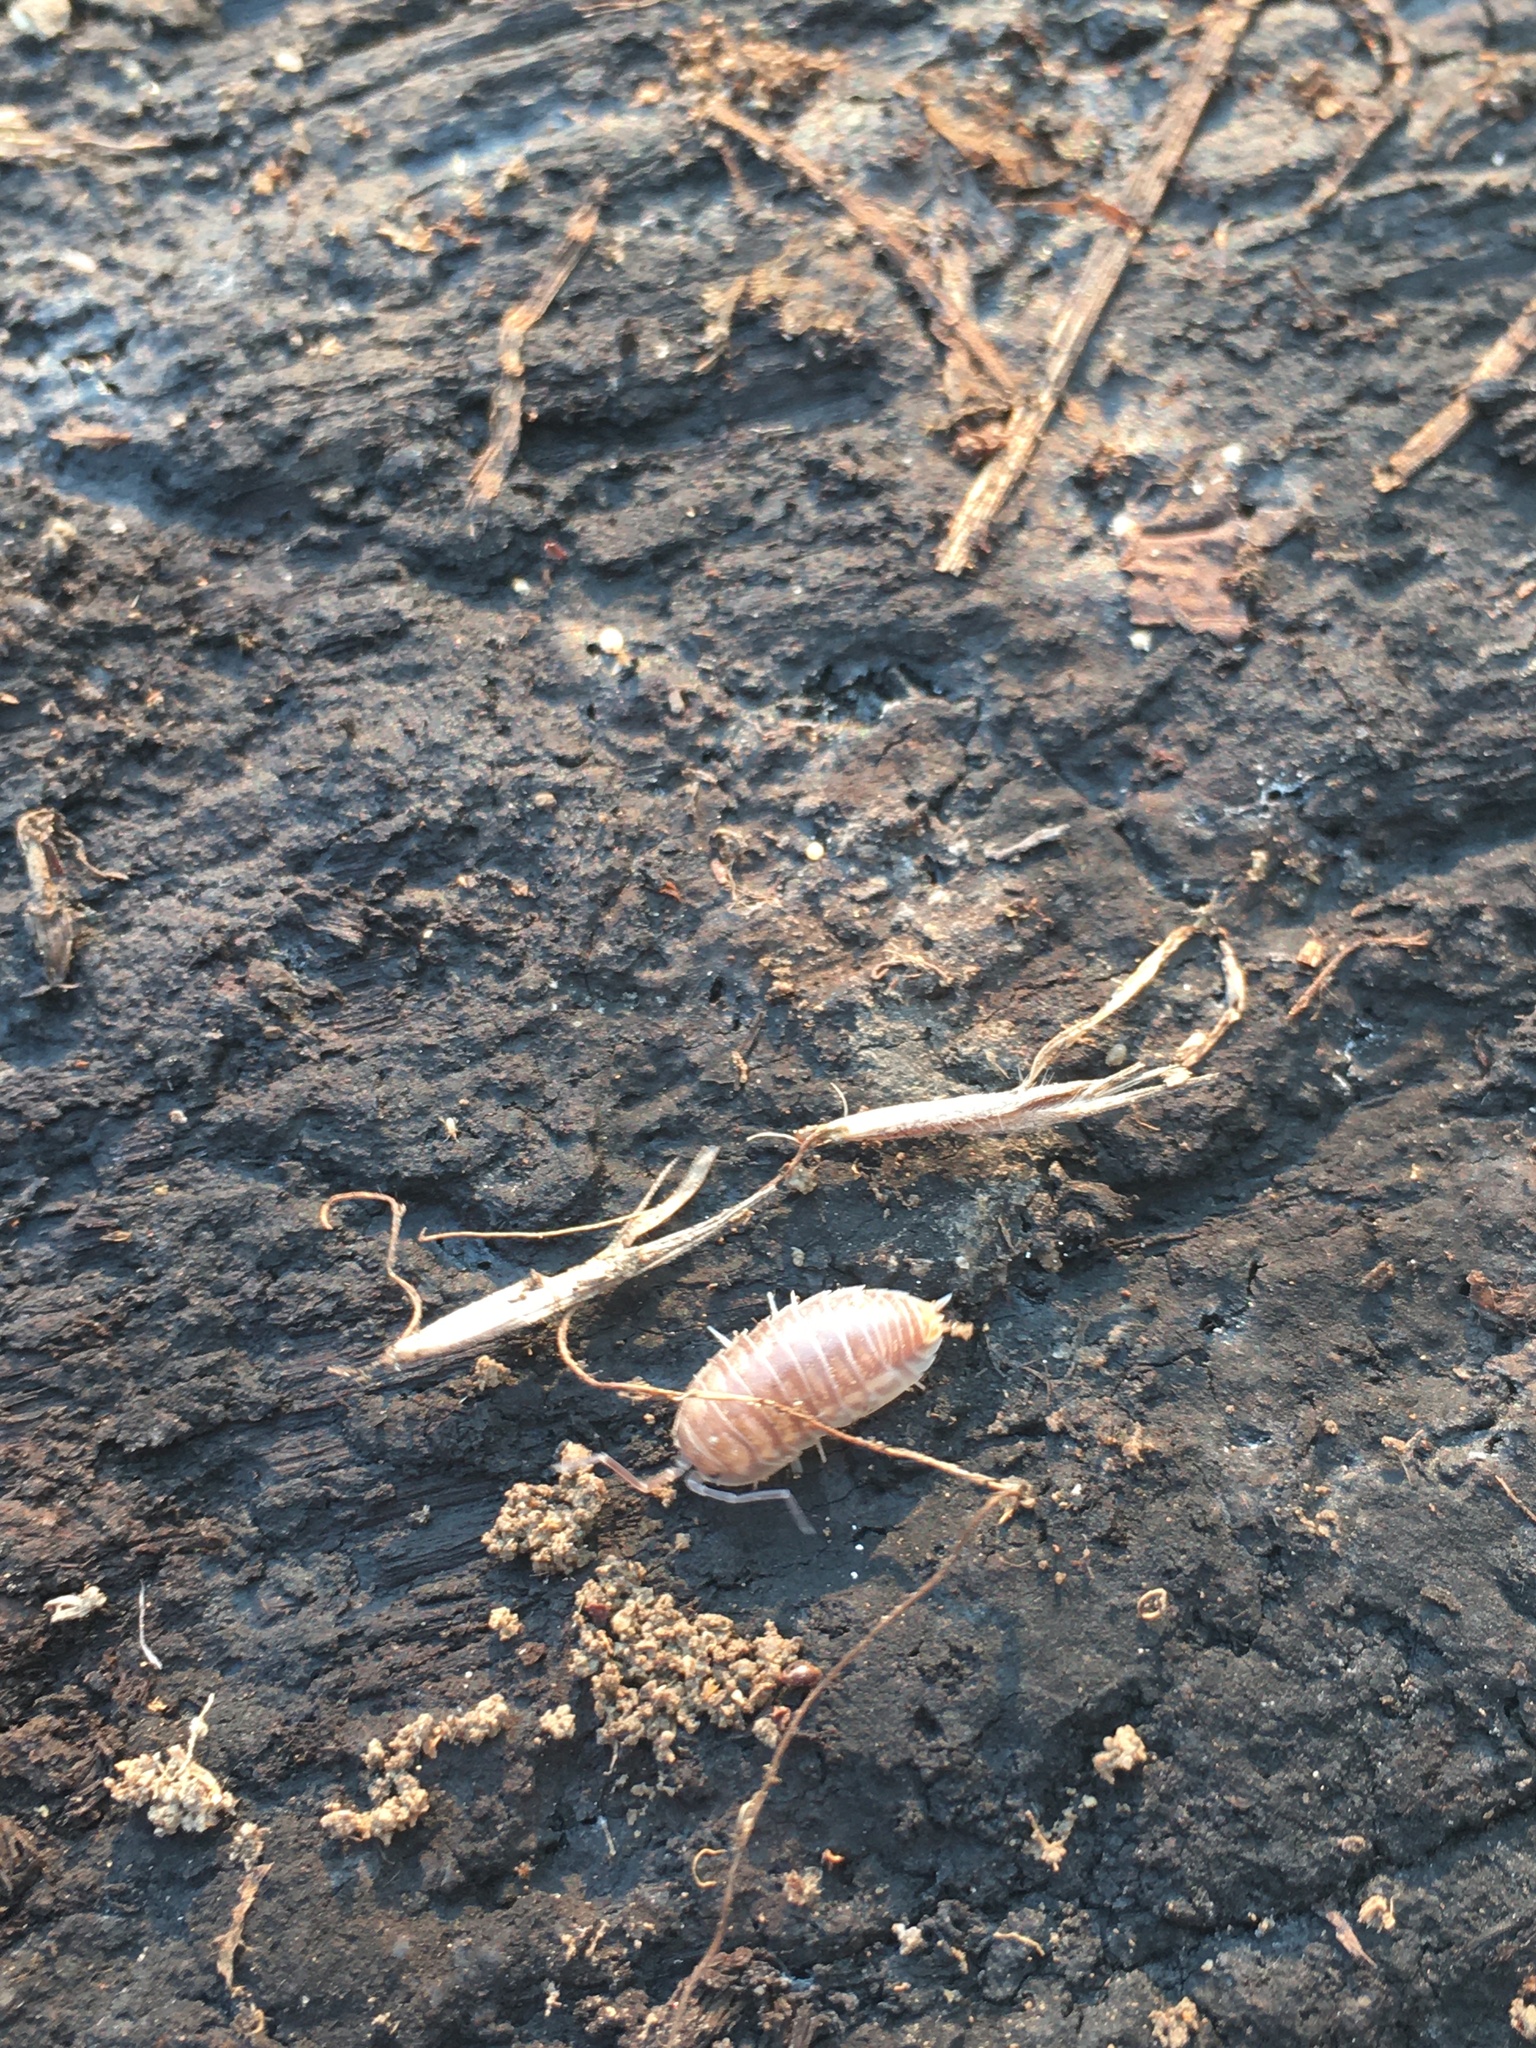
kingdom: Animalia
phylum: Arthropoda
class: Malacostraca
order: Isopoda
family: Cylisticidae
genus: Cylisticus
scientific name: Cylisticus convexus
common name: Curly woodlouse
